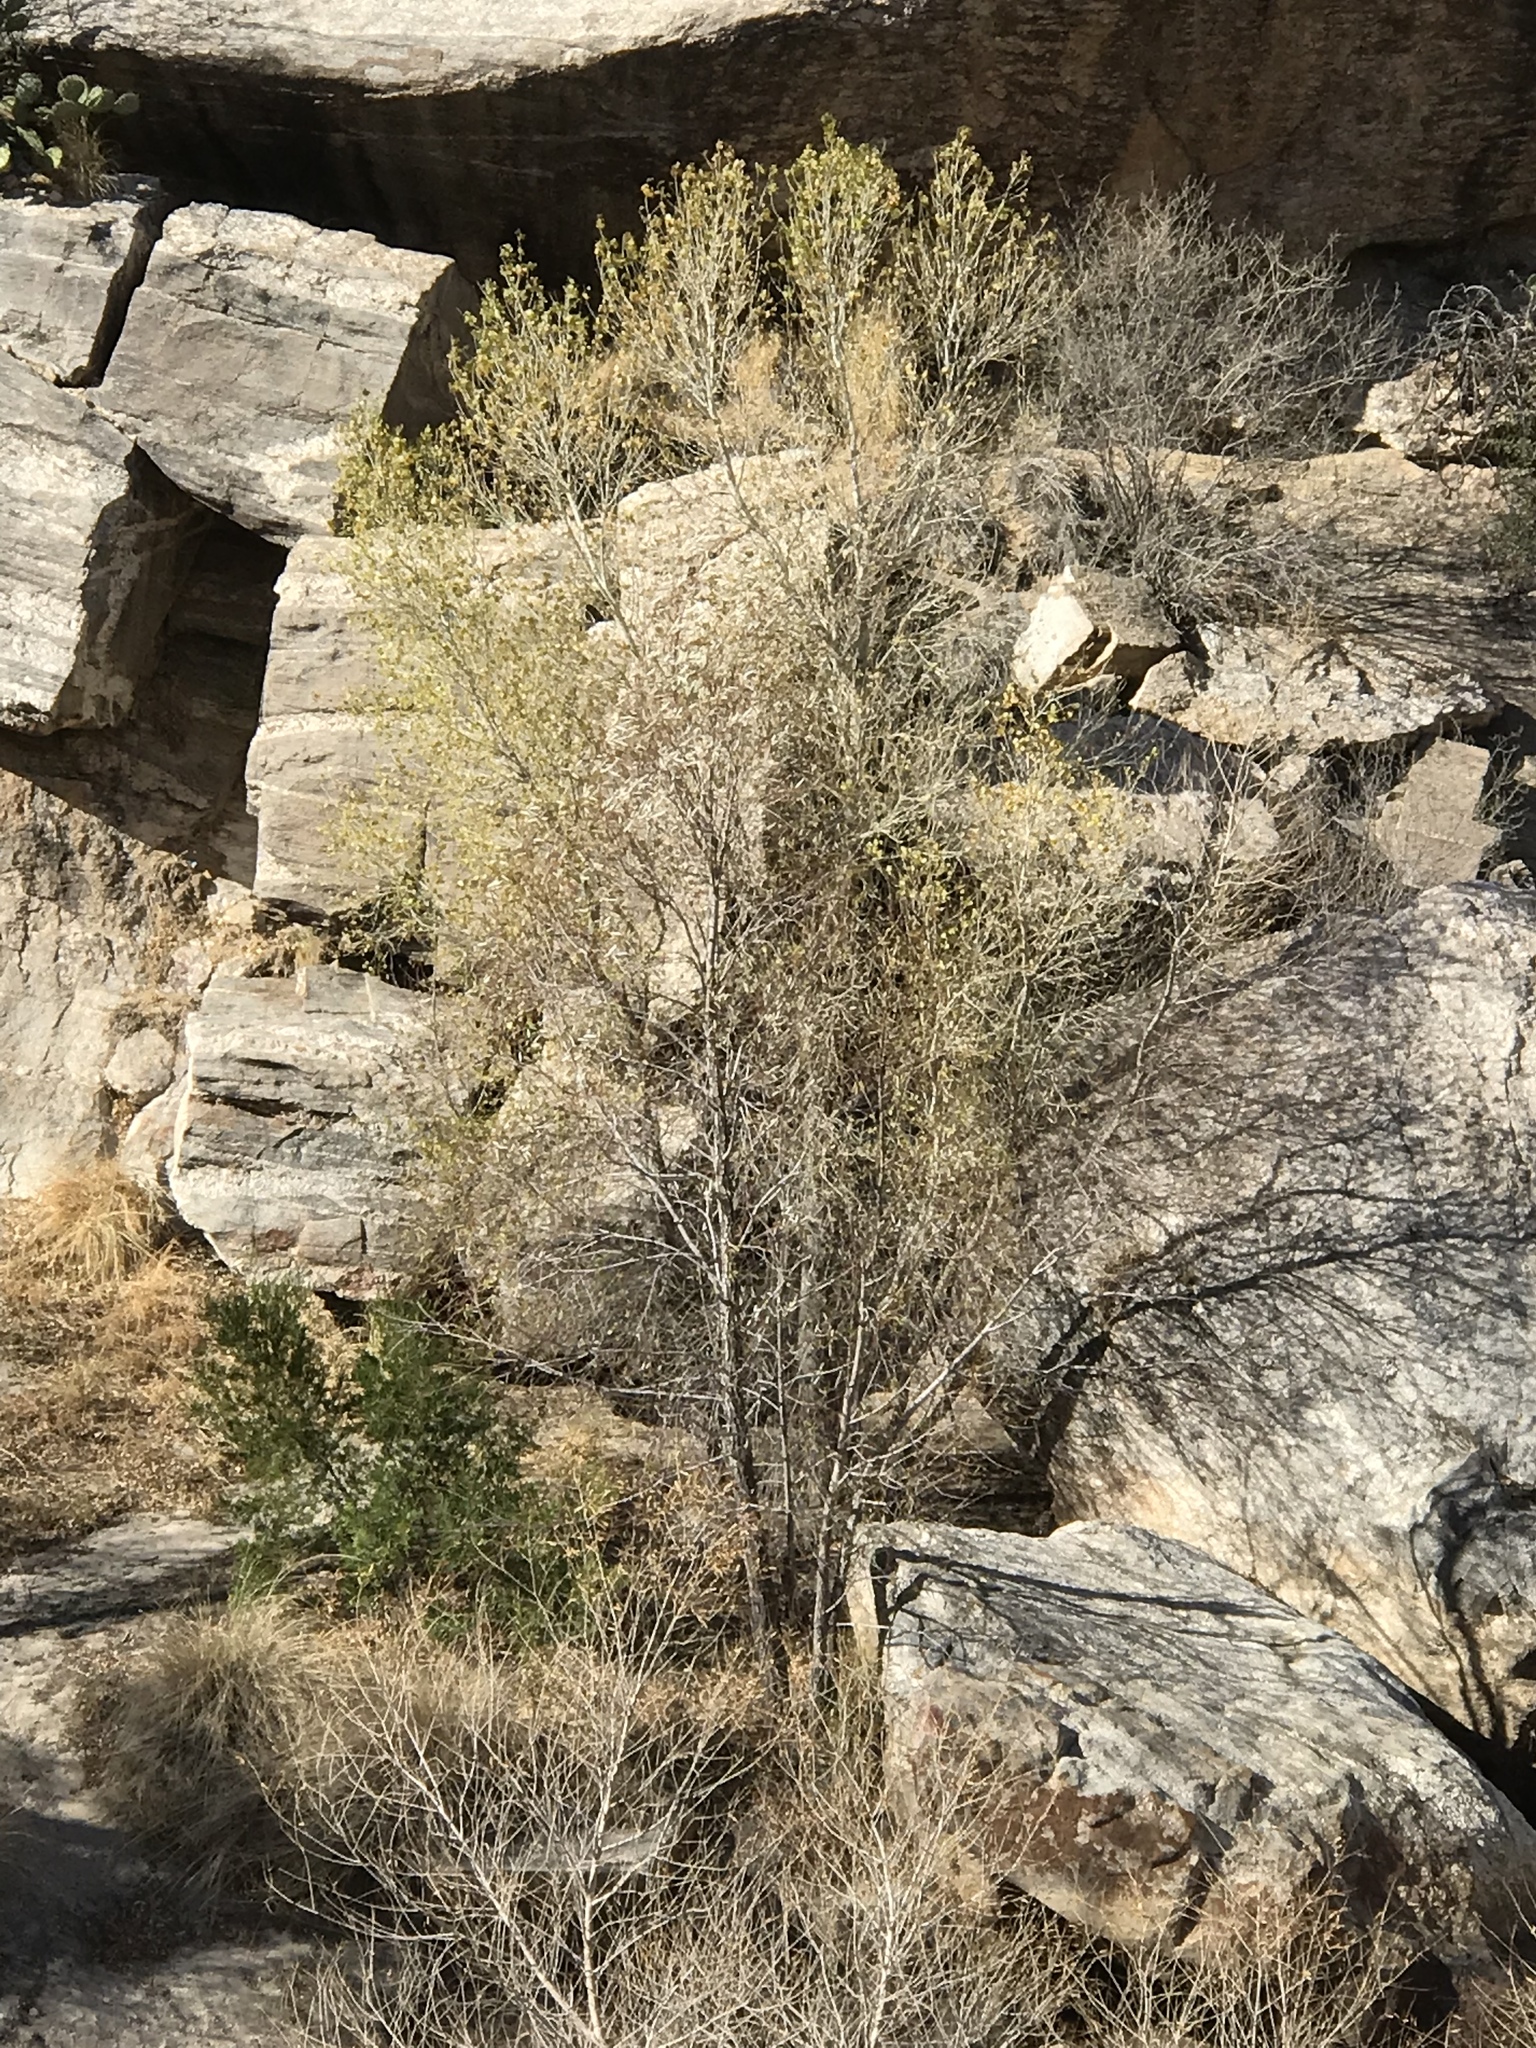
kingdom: Plantae
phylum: Tracheophyta
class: Magnoliopsida
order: Malpighiales
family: Salicaceae
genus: Populus
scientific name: Populus fremontii
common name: Fremont's cottonwood
